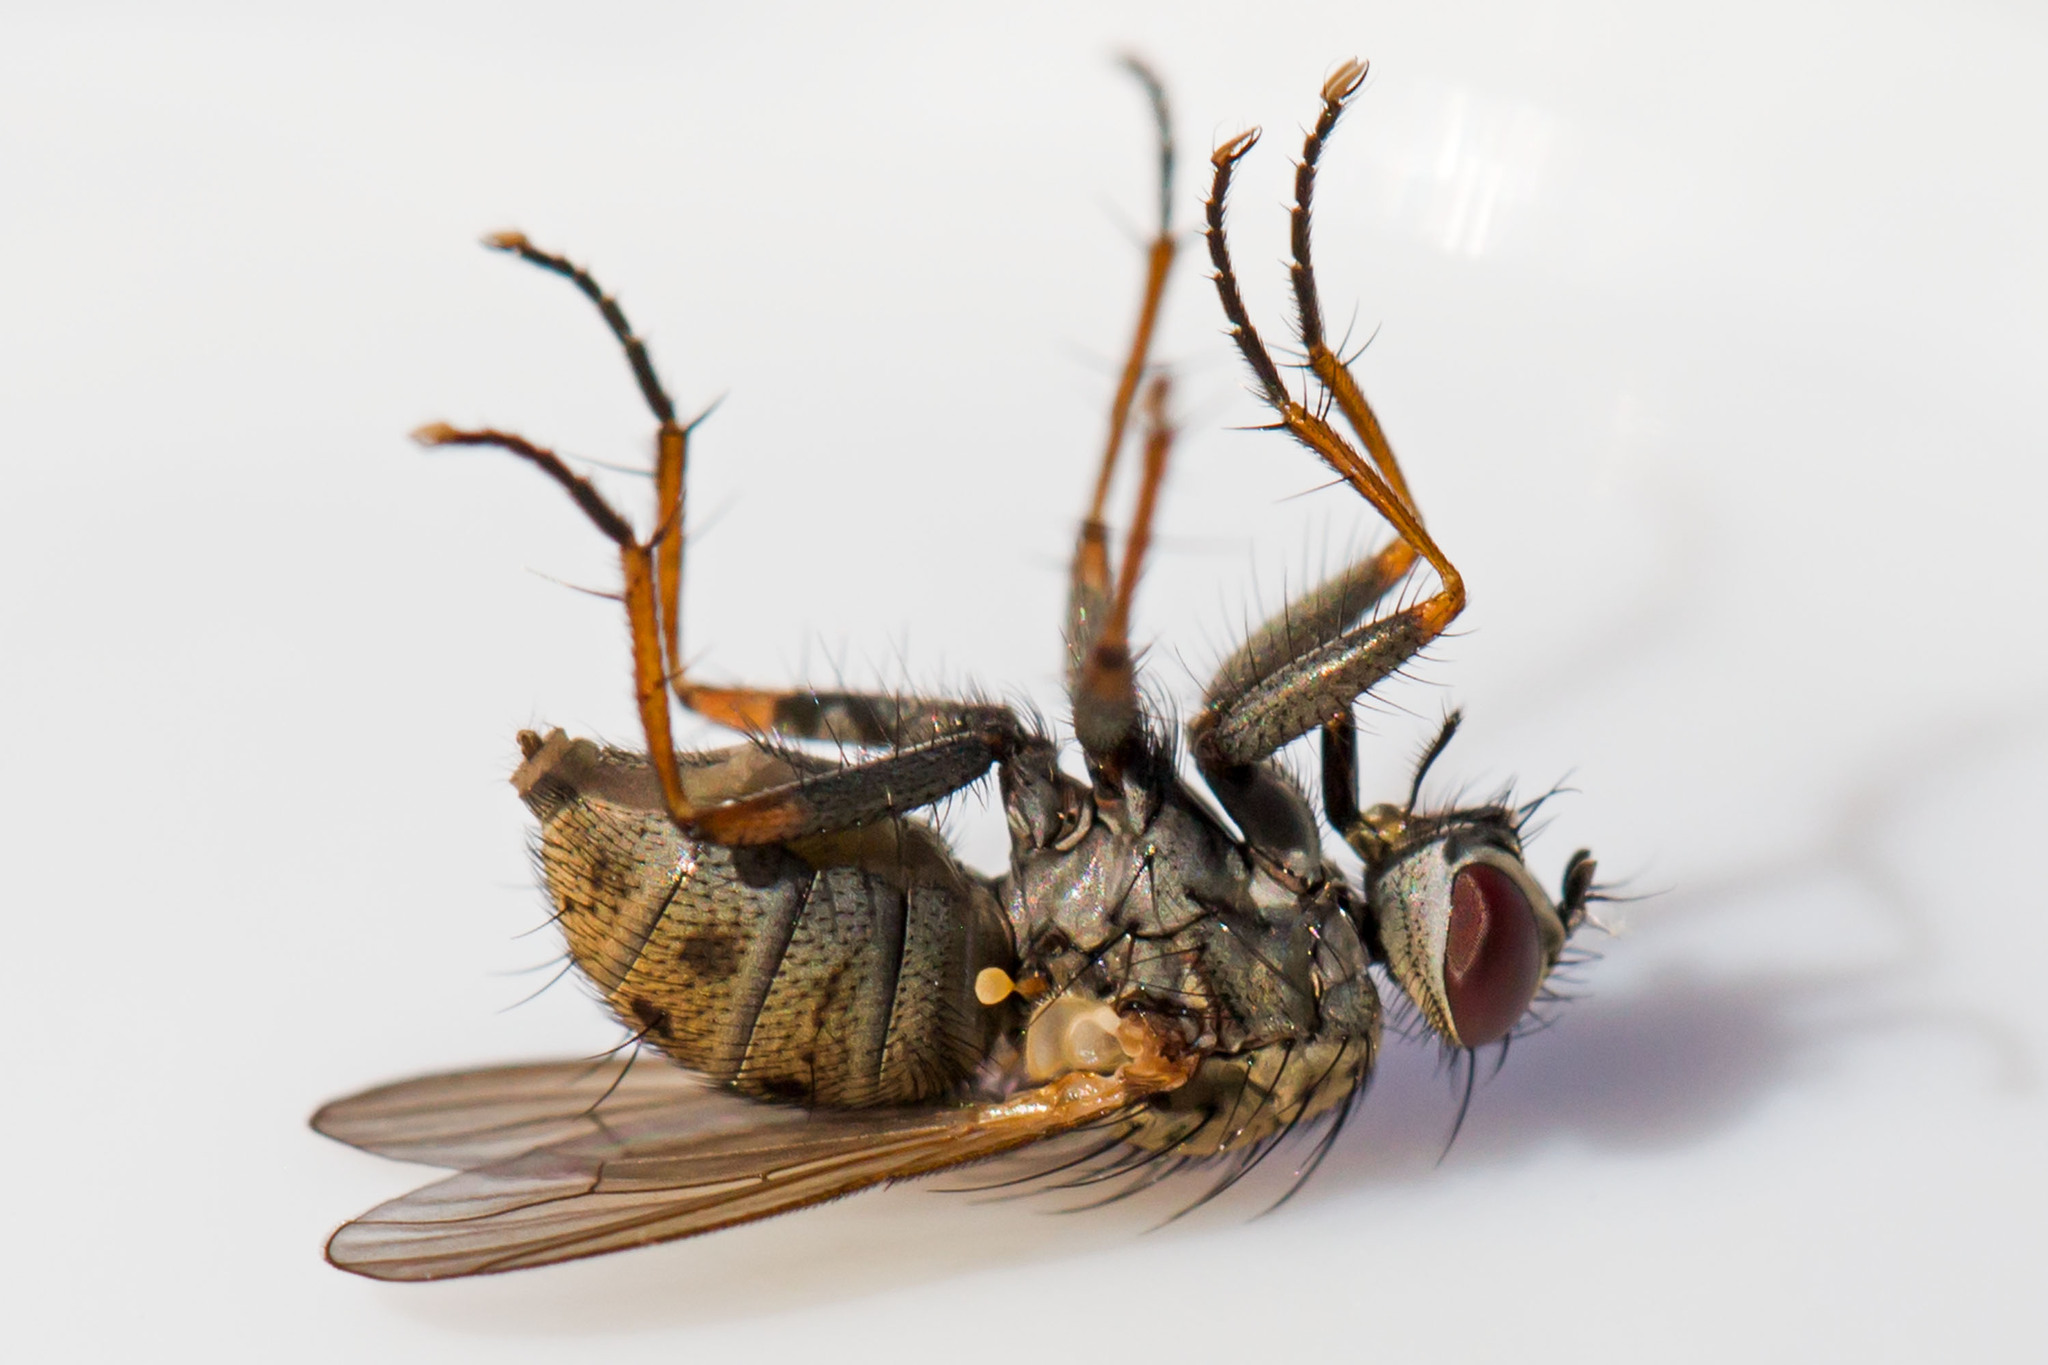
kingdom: Animalia
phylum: Arthropoda
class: Insecta
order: Diptera
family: Muscidae
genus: Coenosia
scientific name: Coenosia tigrina
